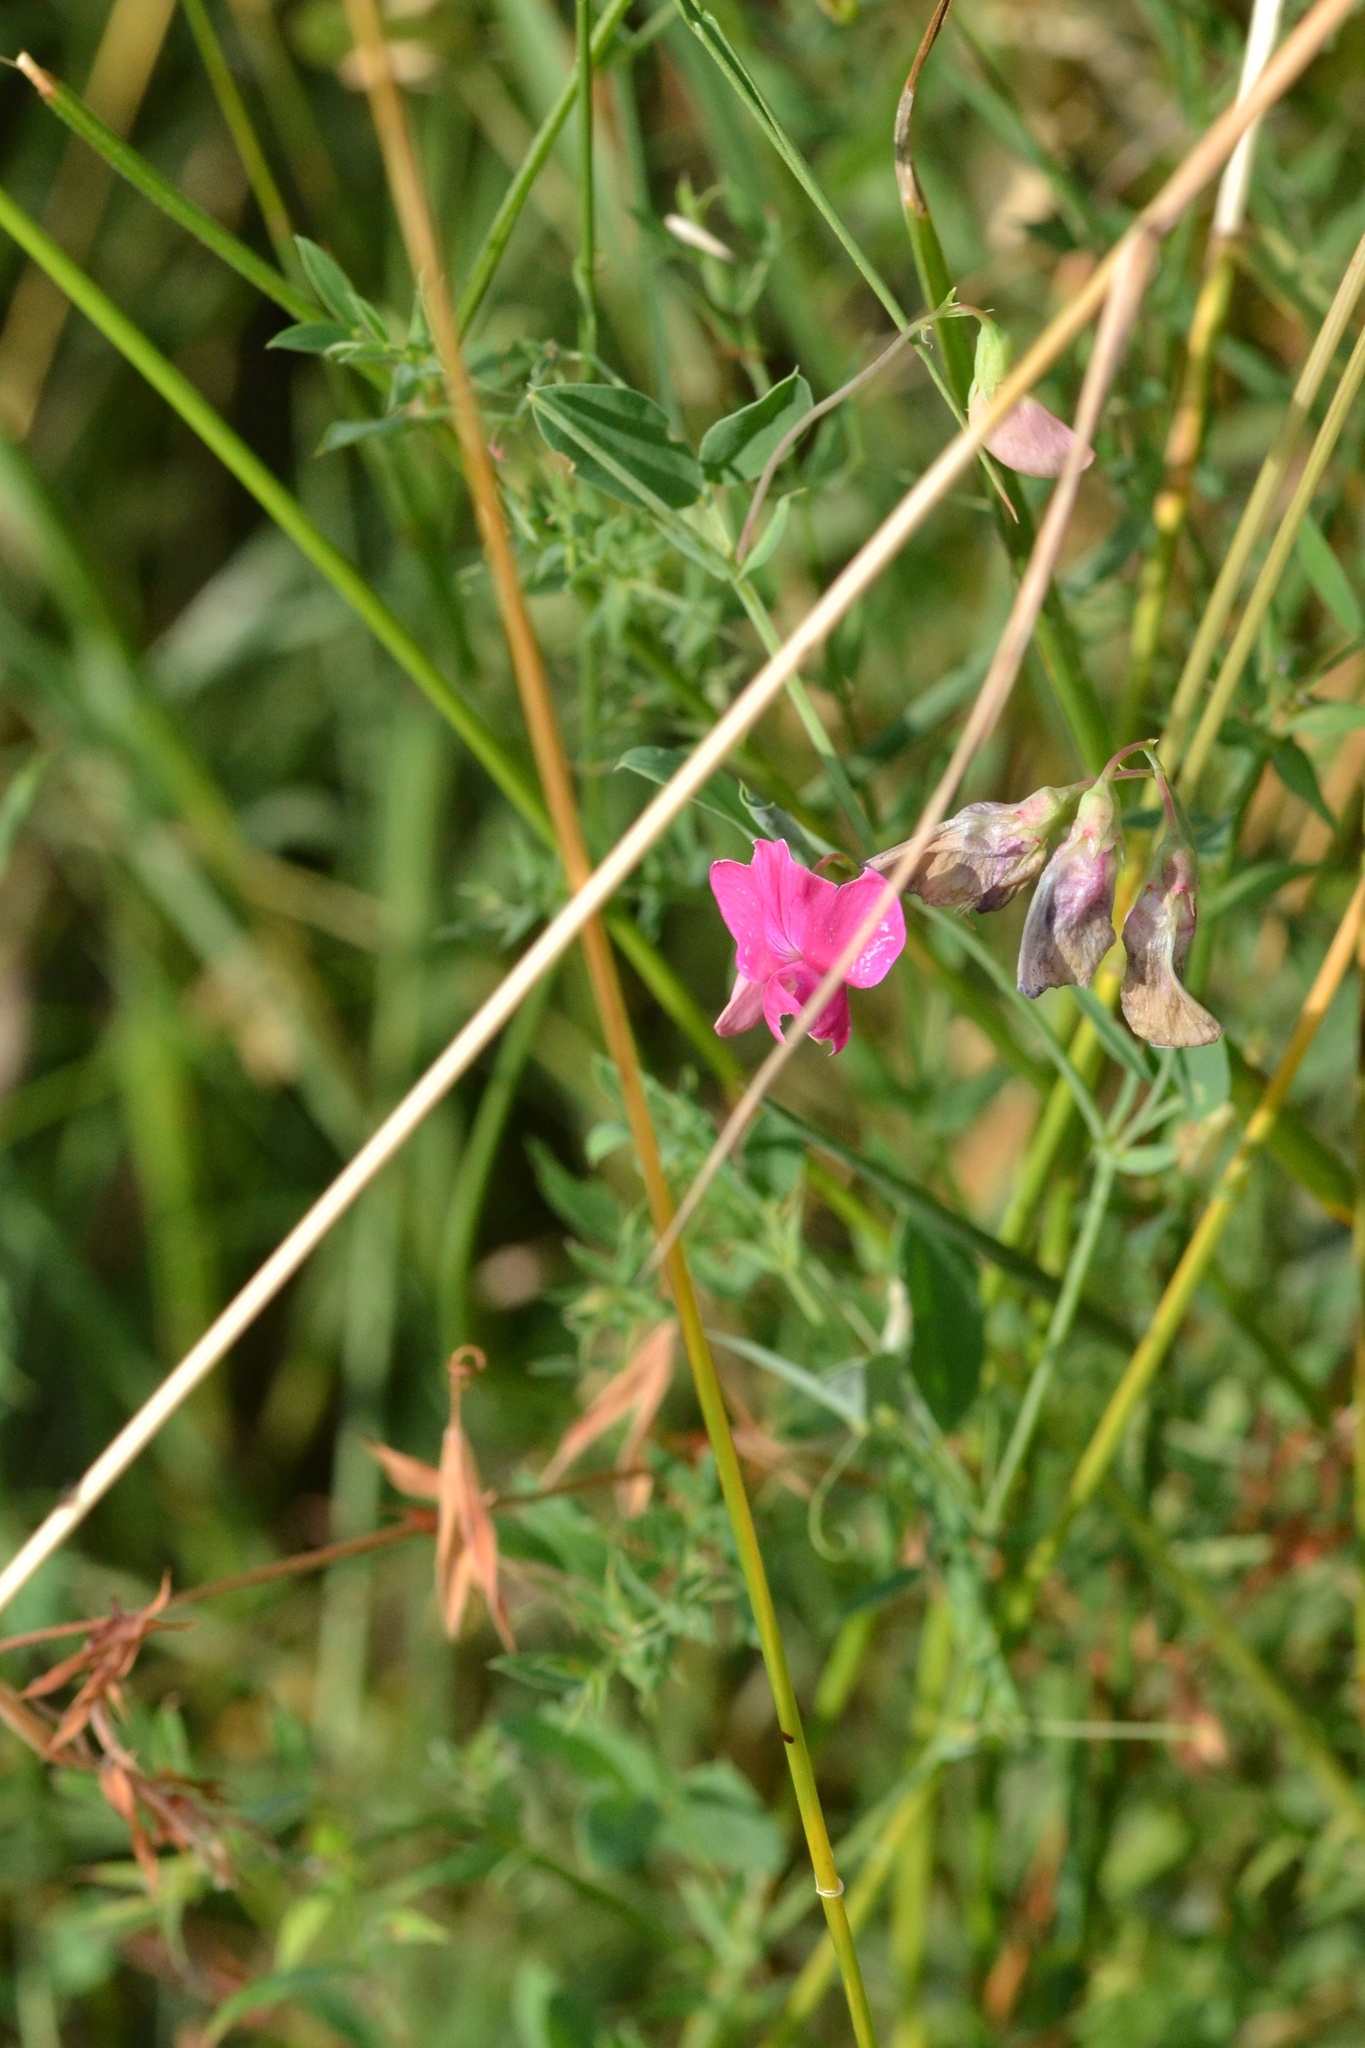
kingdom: Plantae
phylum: Tracheophyta
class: Magnoliopsida
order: Fabales
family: Fabaceae
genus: Lathyrus
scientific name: Lathyrus tuberosus
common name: Tuberous pea
